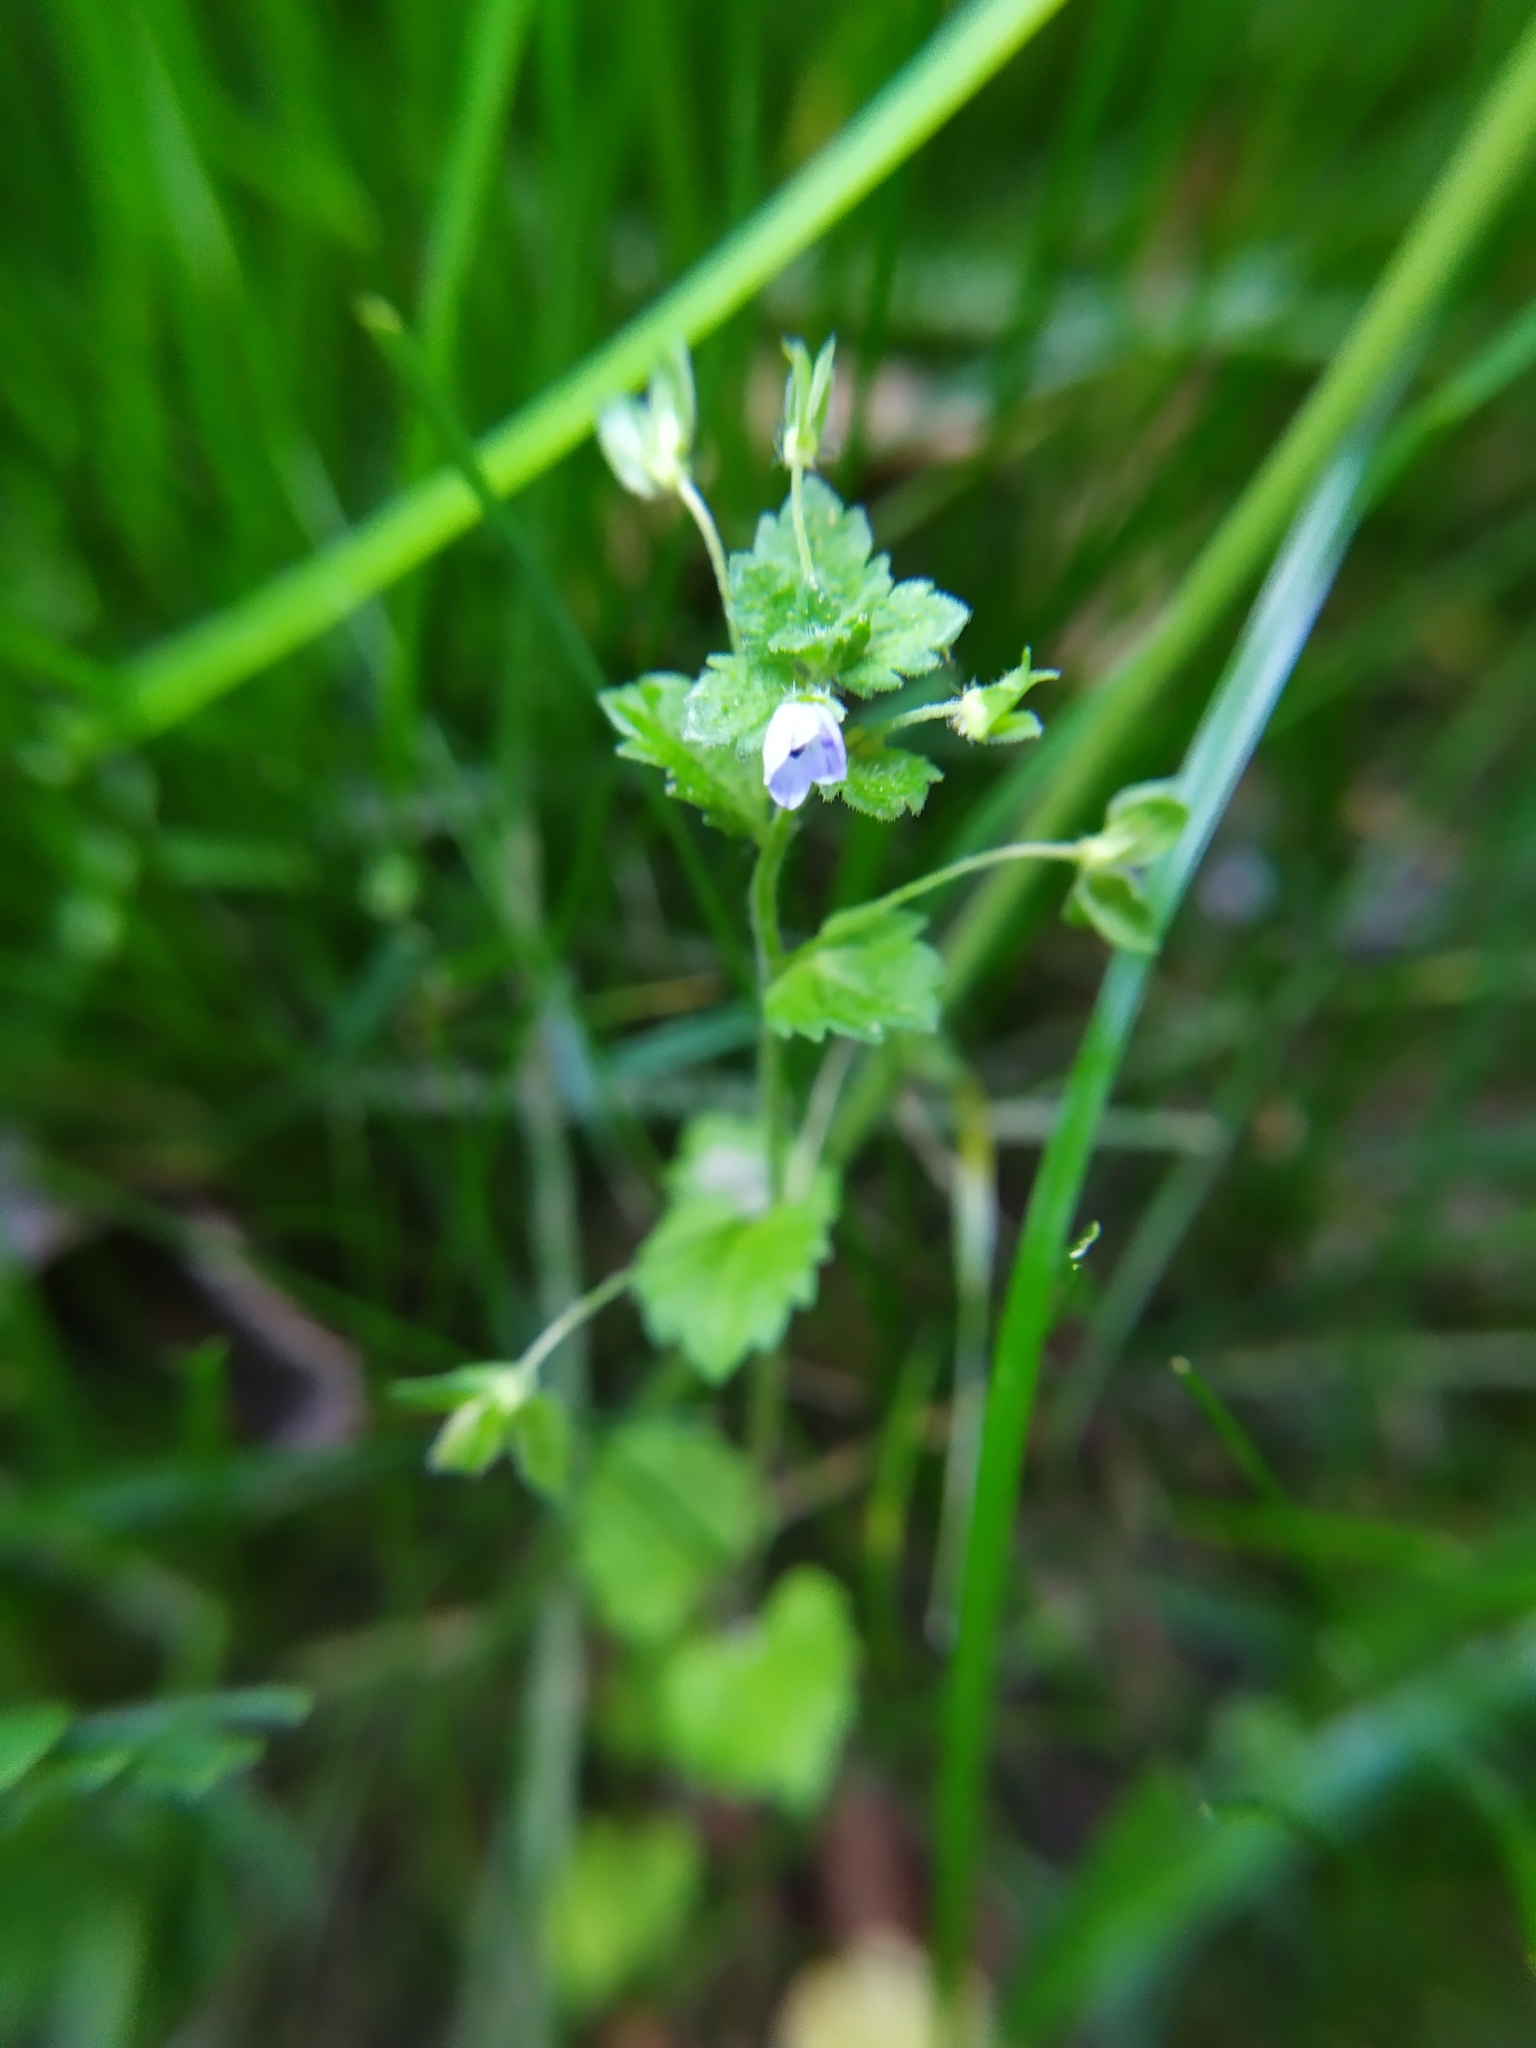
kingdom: Plantae
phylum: Tracheophyta
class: Magnoliopsida
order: Lamiales
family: Plantaginaceae
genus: Veronica
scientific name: Veronica persica
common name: Common field-speedwell
